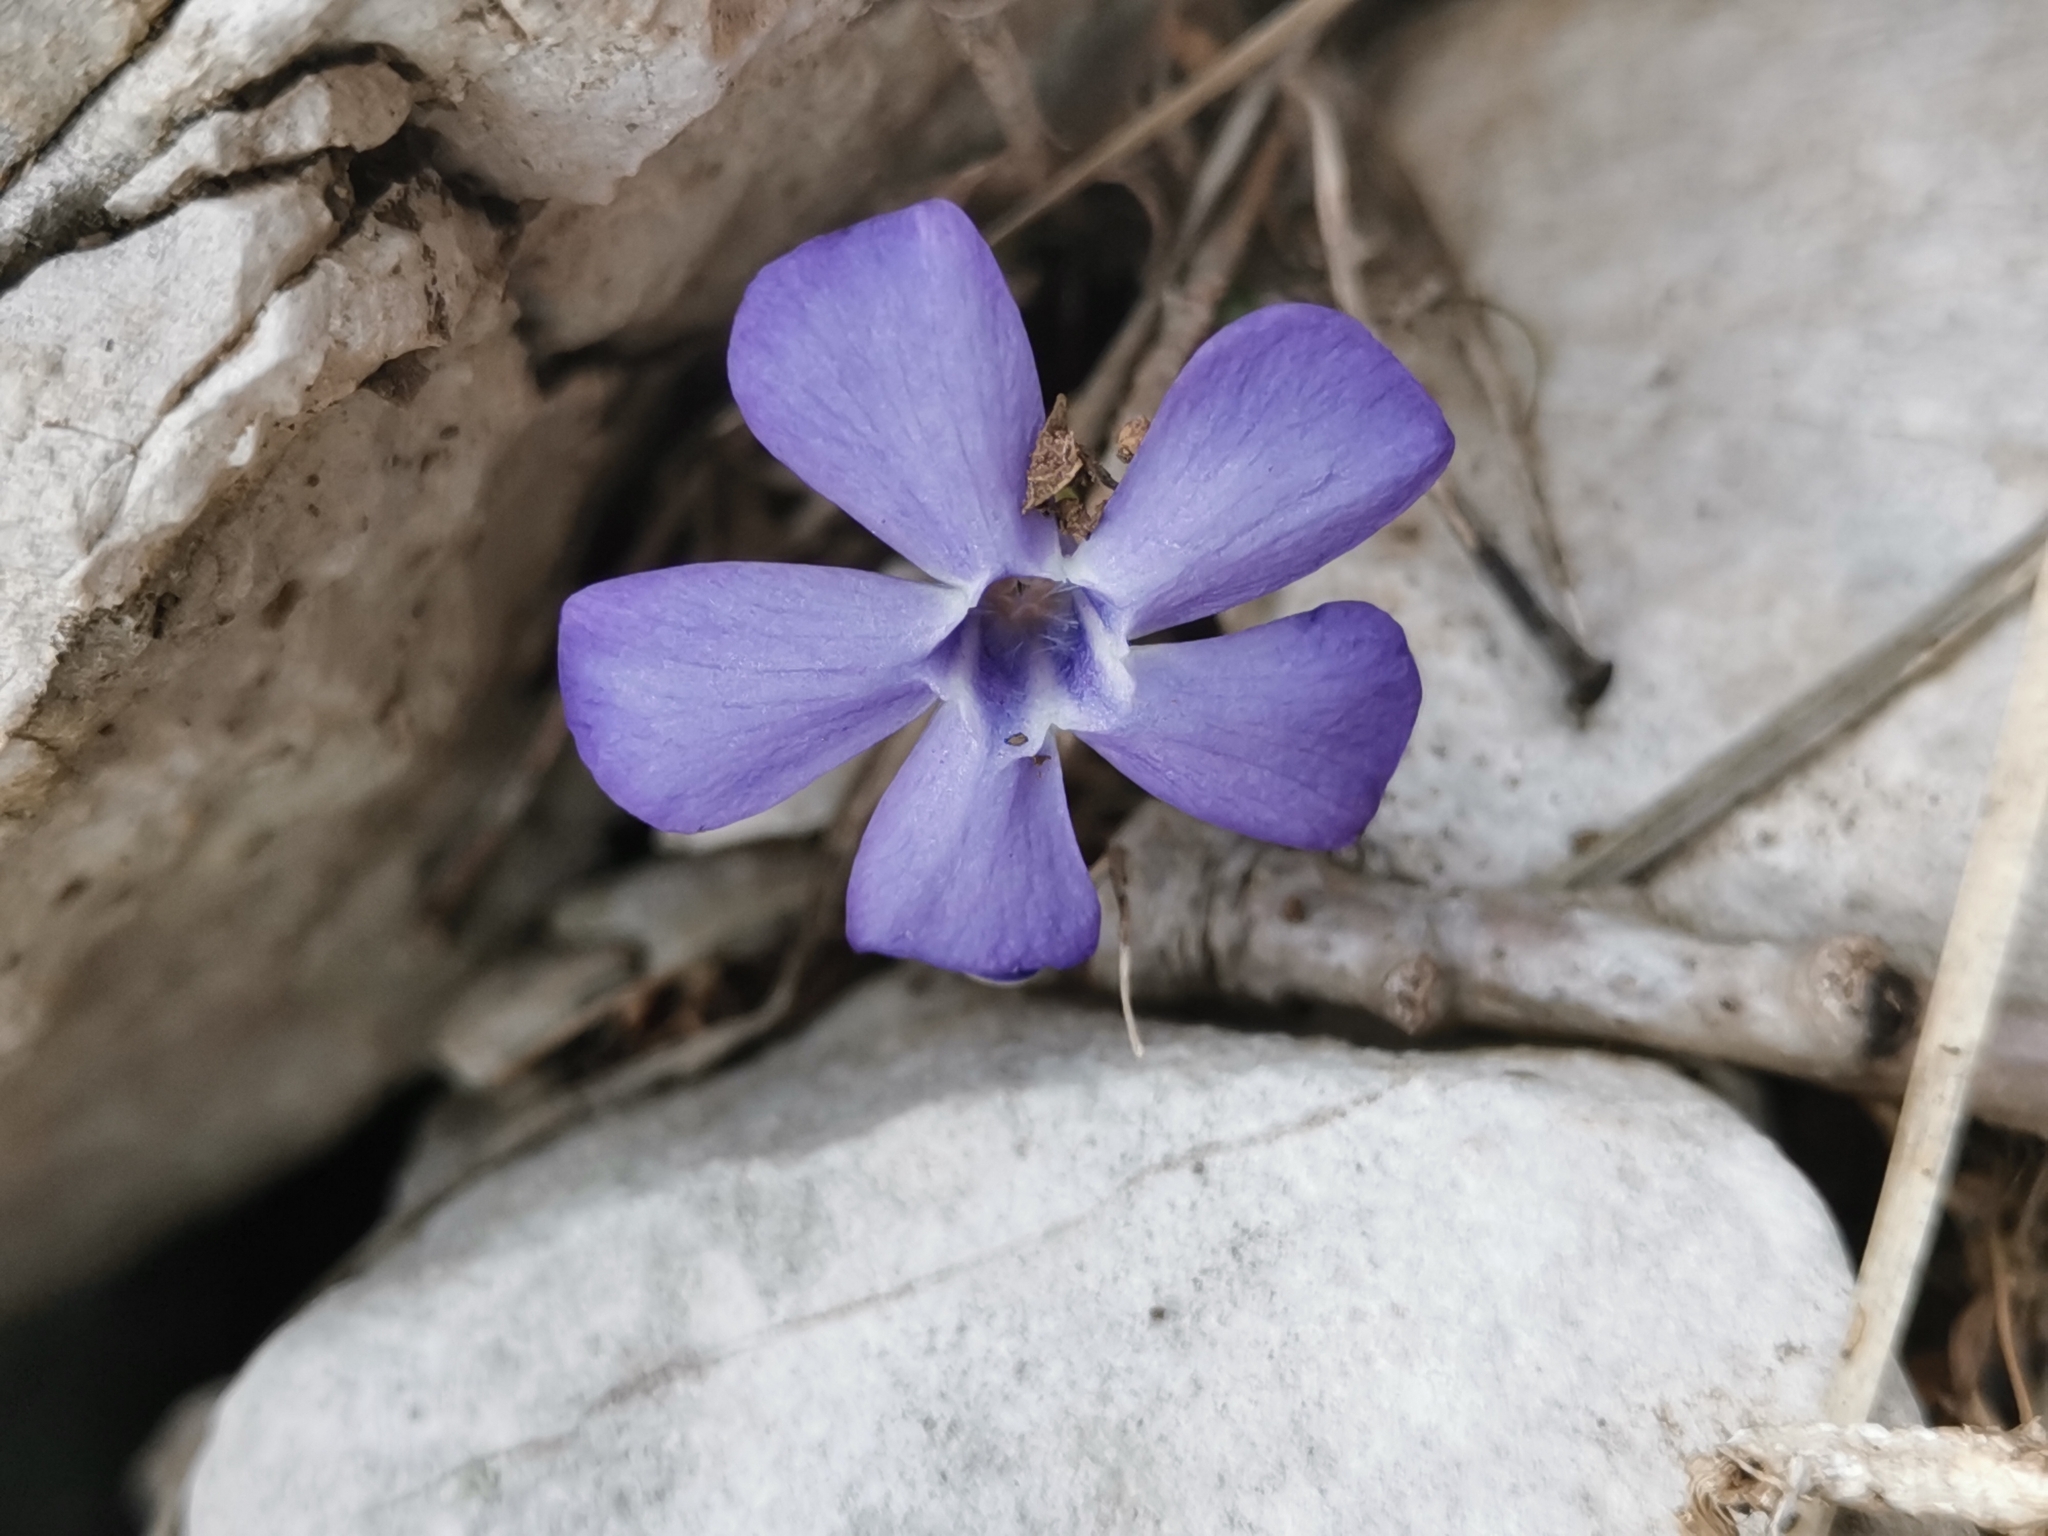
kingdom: Plantae
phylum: Tracheophyta
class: Magnoliopsida
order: Gentianales
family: Apocynaceae
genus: Vinca
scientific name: Vinca minor
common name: Lesser periwinkle
